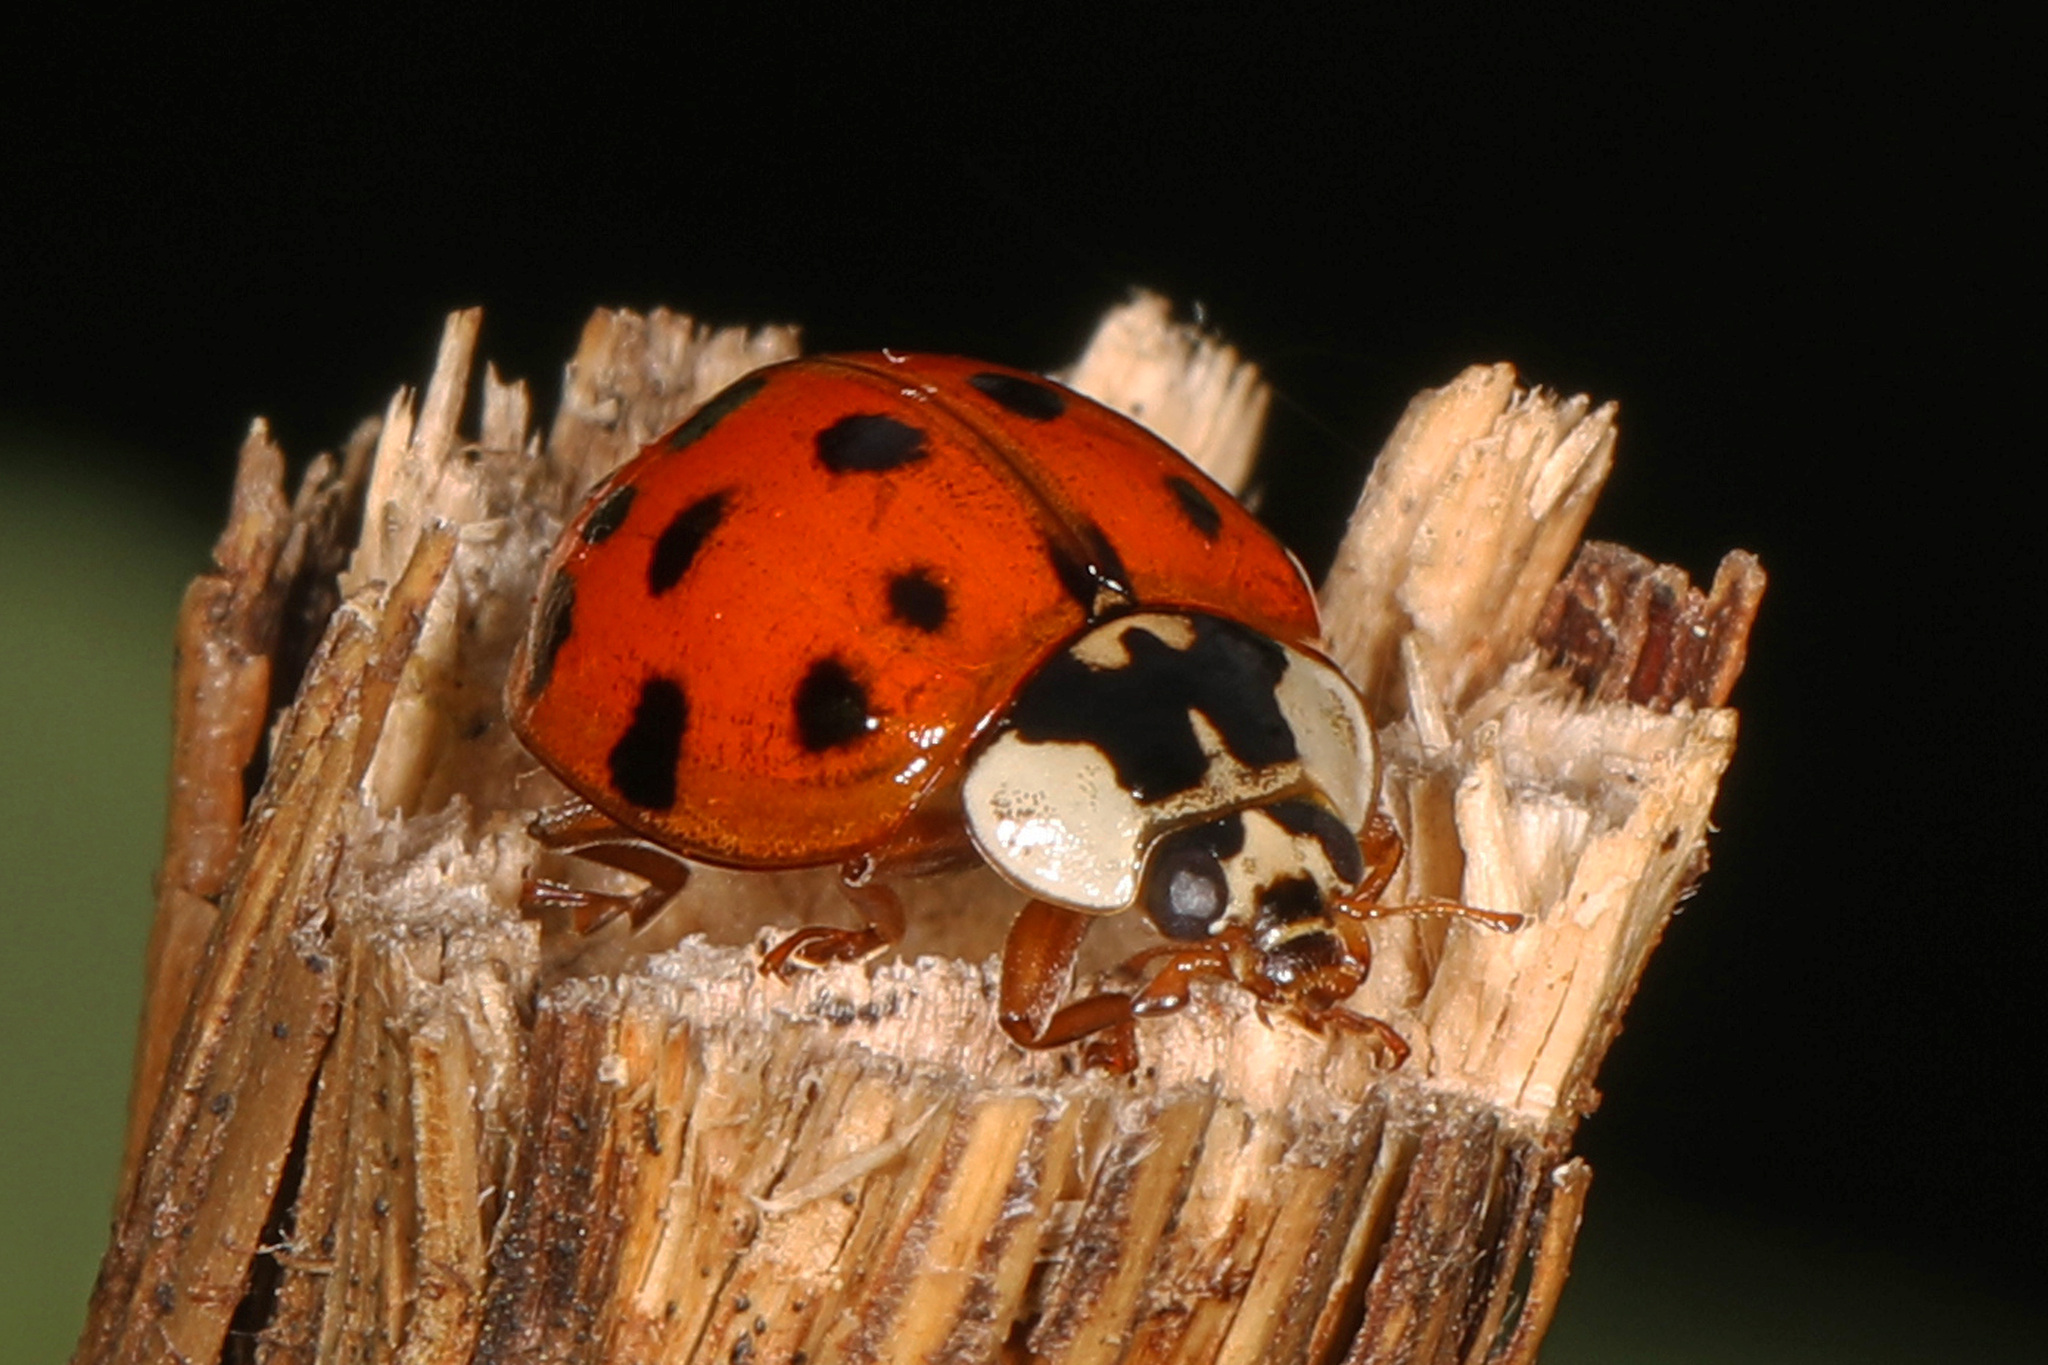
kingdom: Animalia
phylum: Arthropoda
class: Insecta
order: Coleoptera
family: Coccinellidae
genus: Harmonia
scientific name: Harmonia axyridis
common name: Harlequin ladybird
